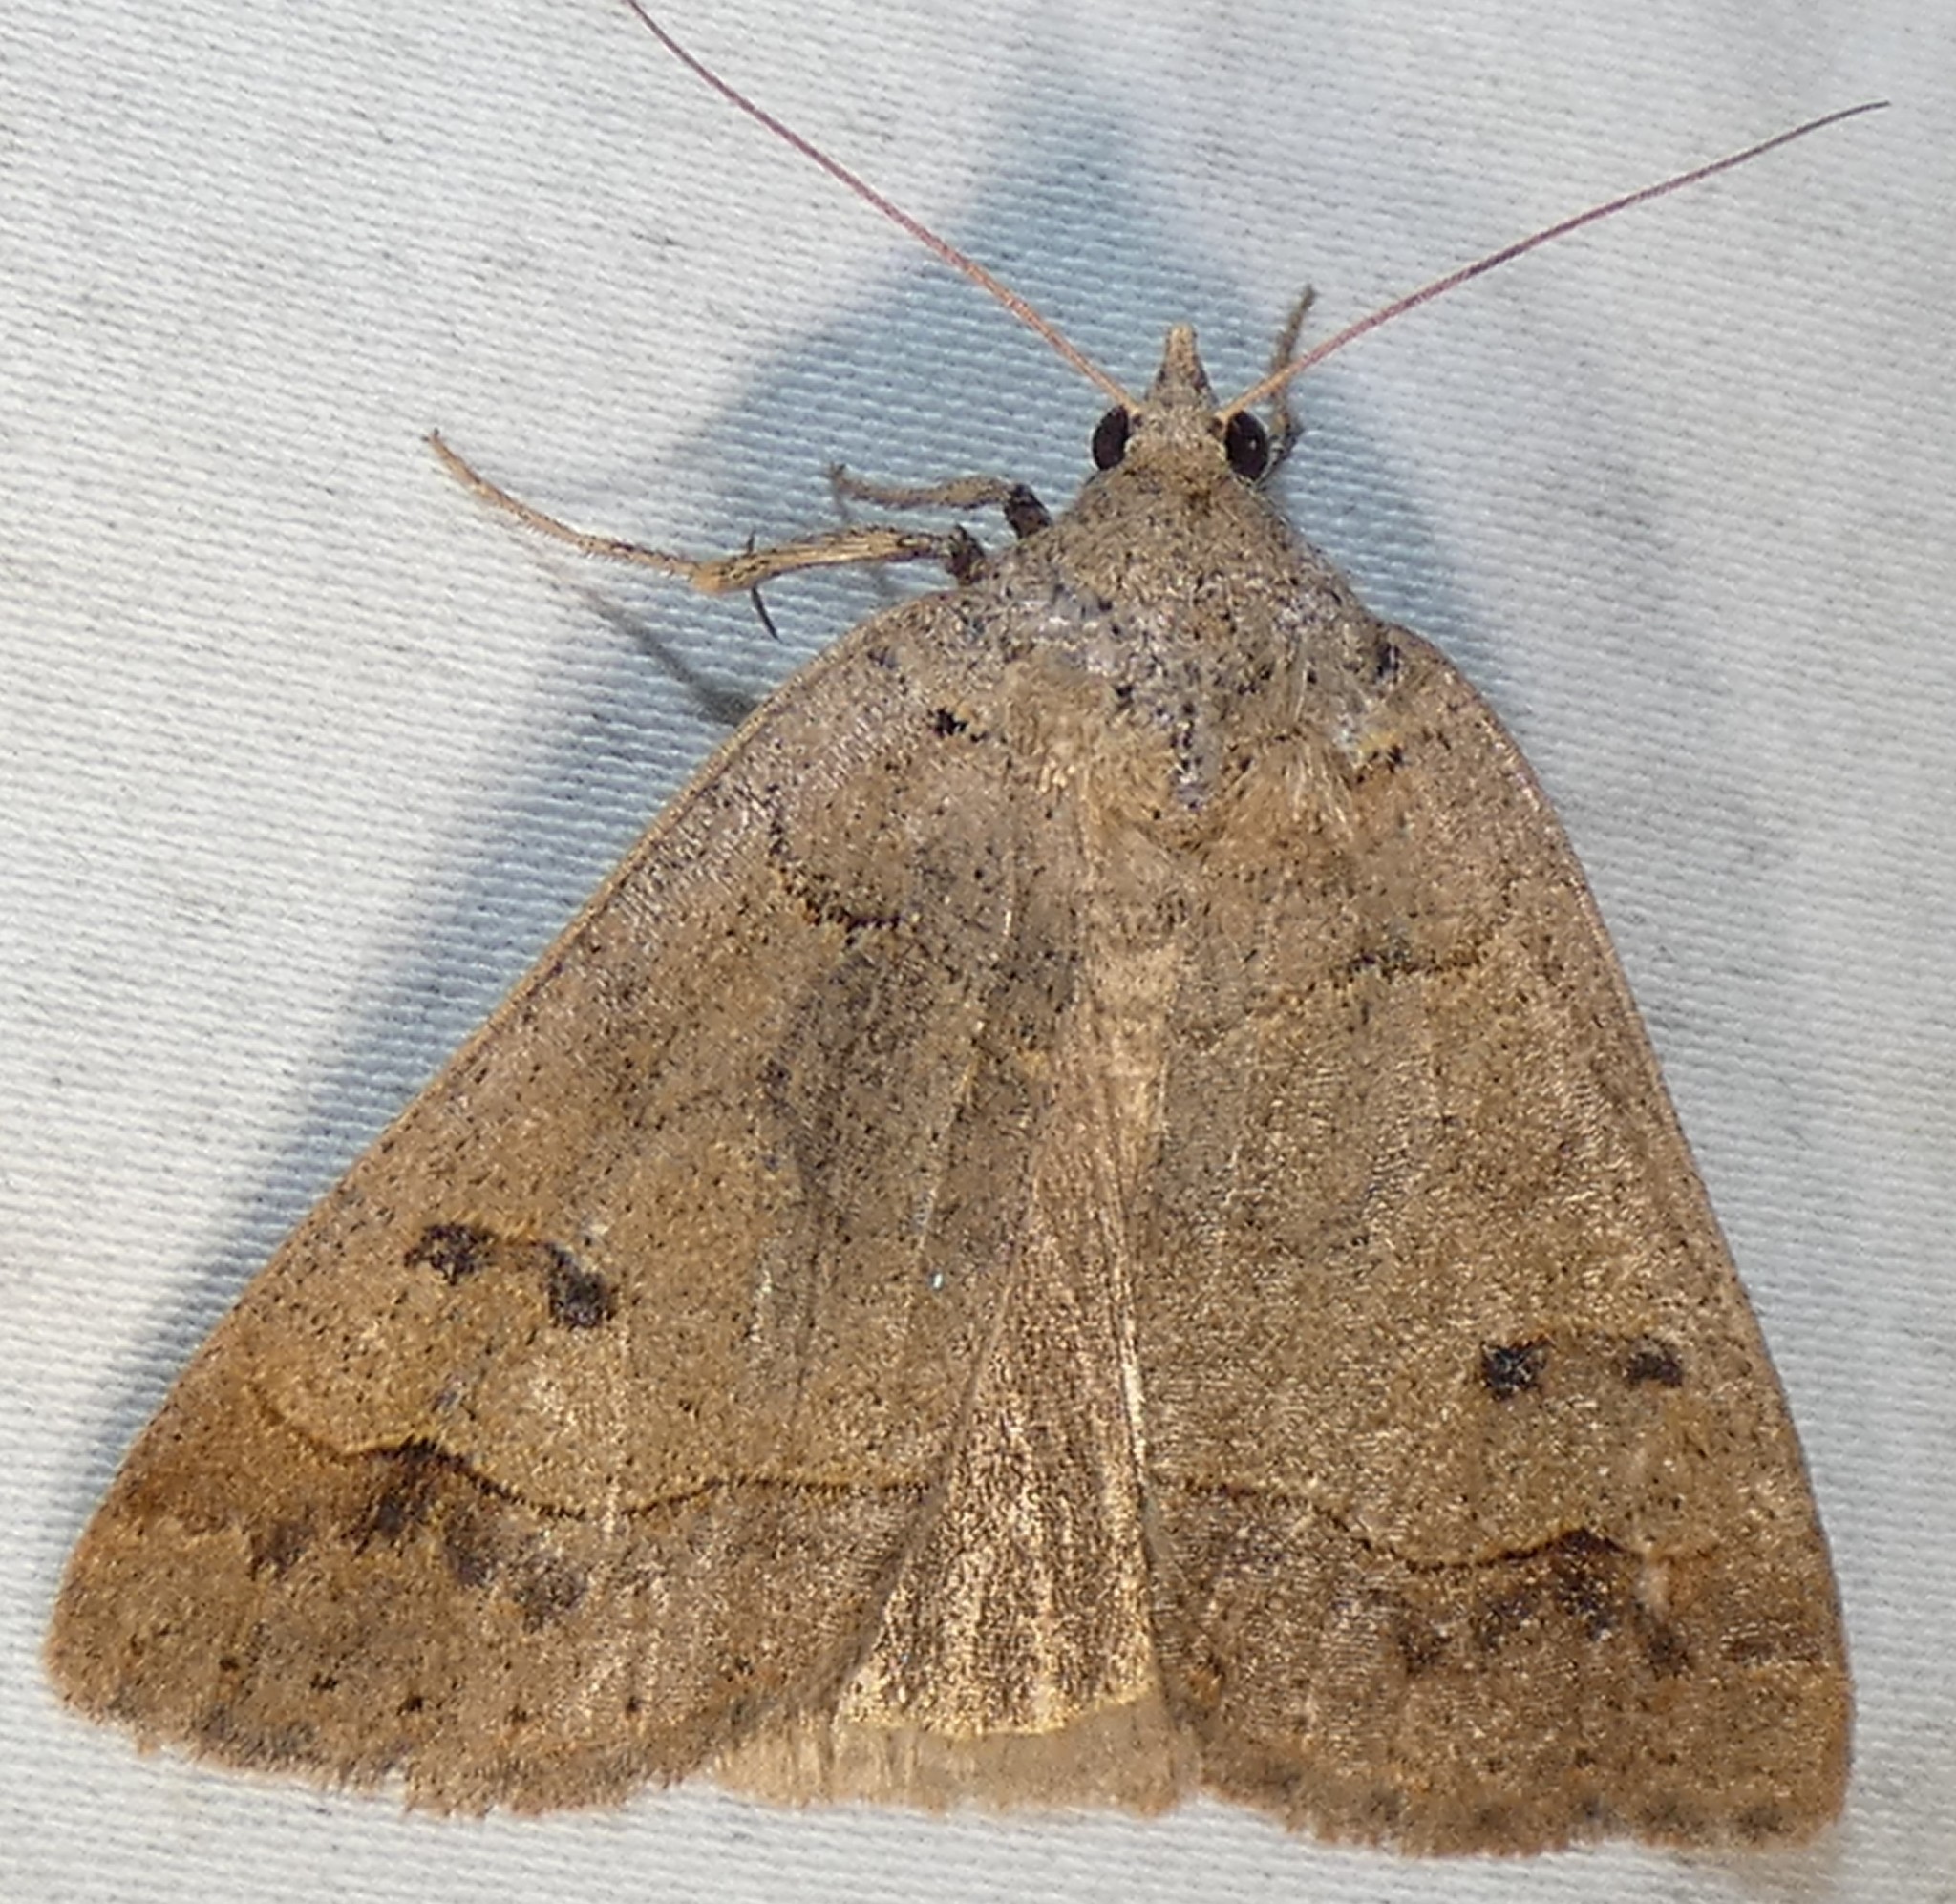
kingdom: Animalia
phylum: Arthropoda
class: Insecta
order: Lepidoptera
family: Erebidae
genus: Phoberia
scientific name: Phoberia atomaris
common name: Common oak moth
